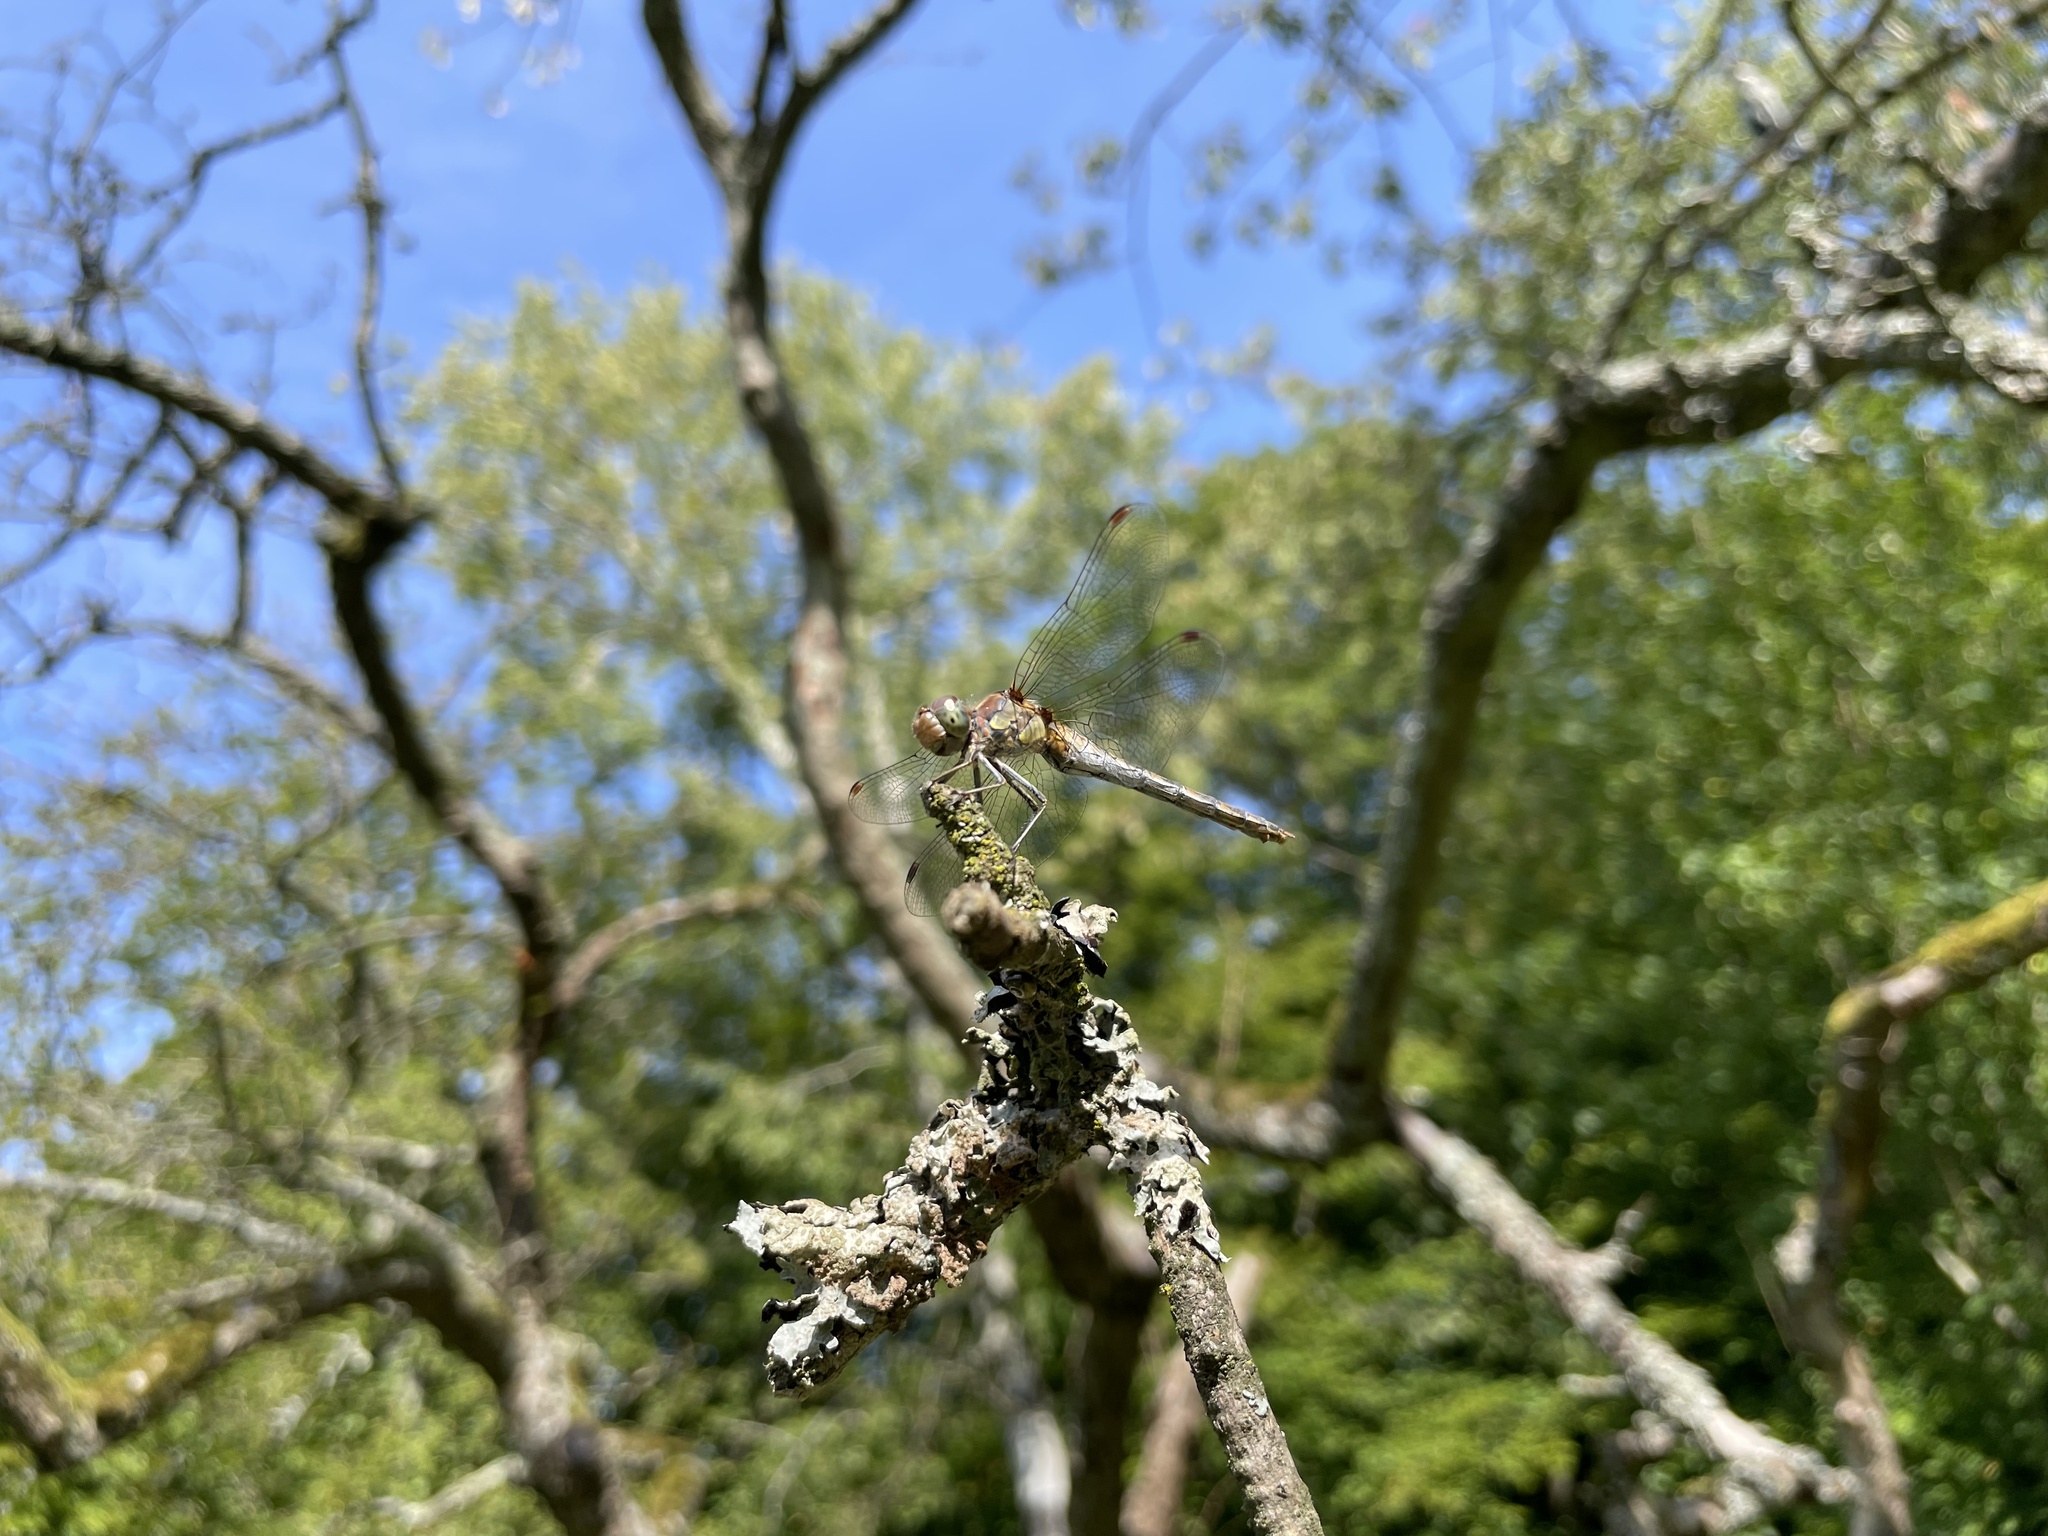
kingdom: Animalia
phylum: Arthropoda
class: Insecta
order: Odonata
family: Libellulidae
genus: Sympetrum
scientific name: Sympetrum striolatum
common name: Common darter
